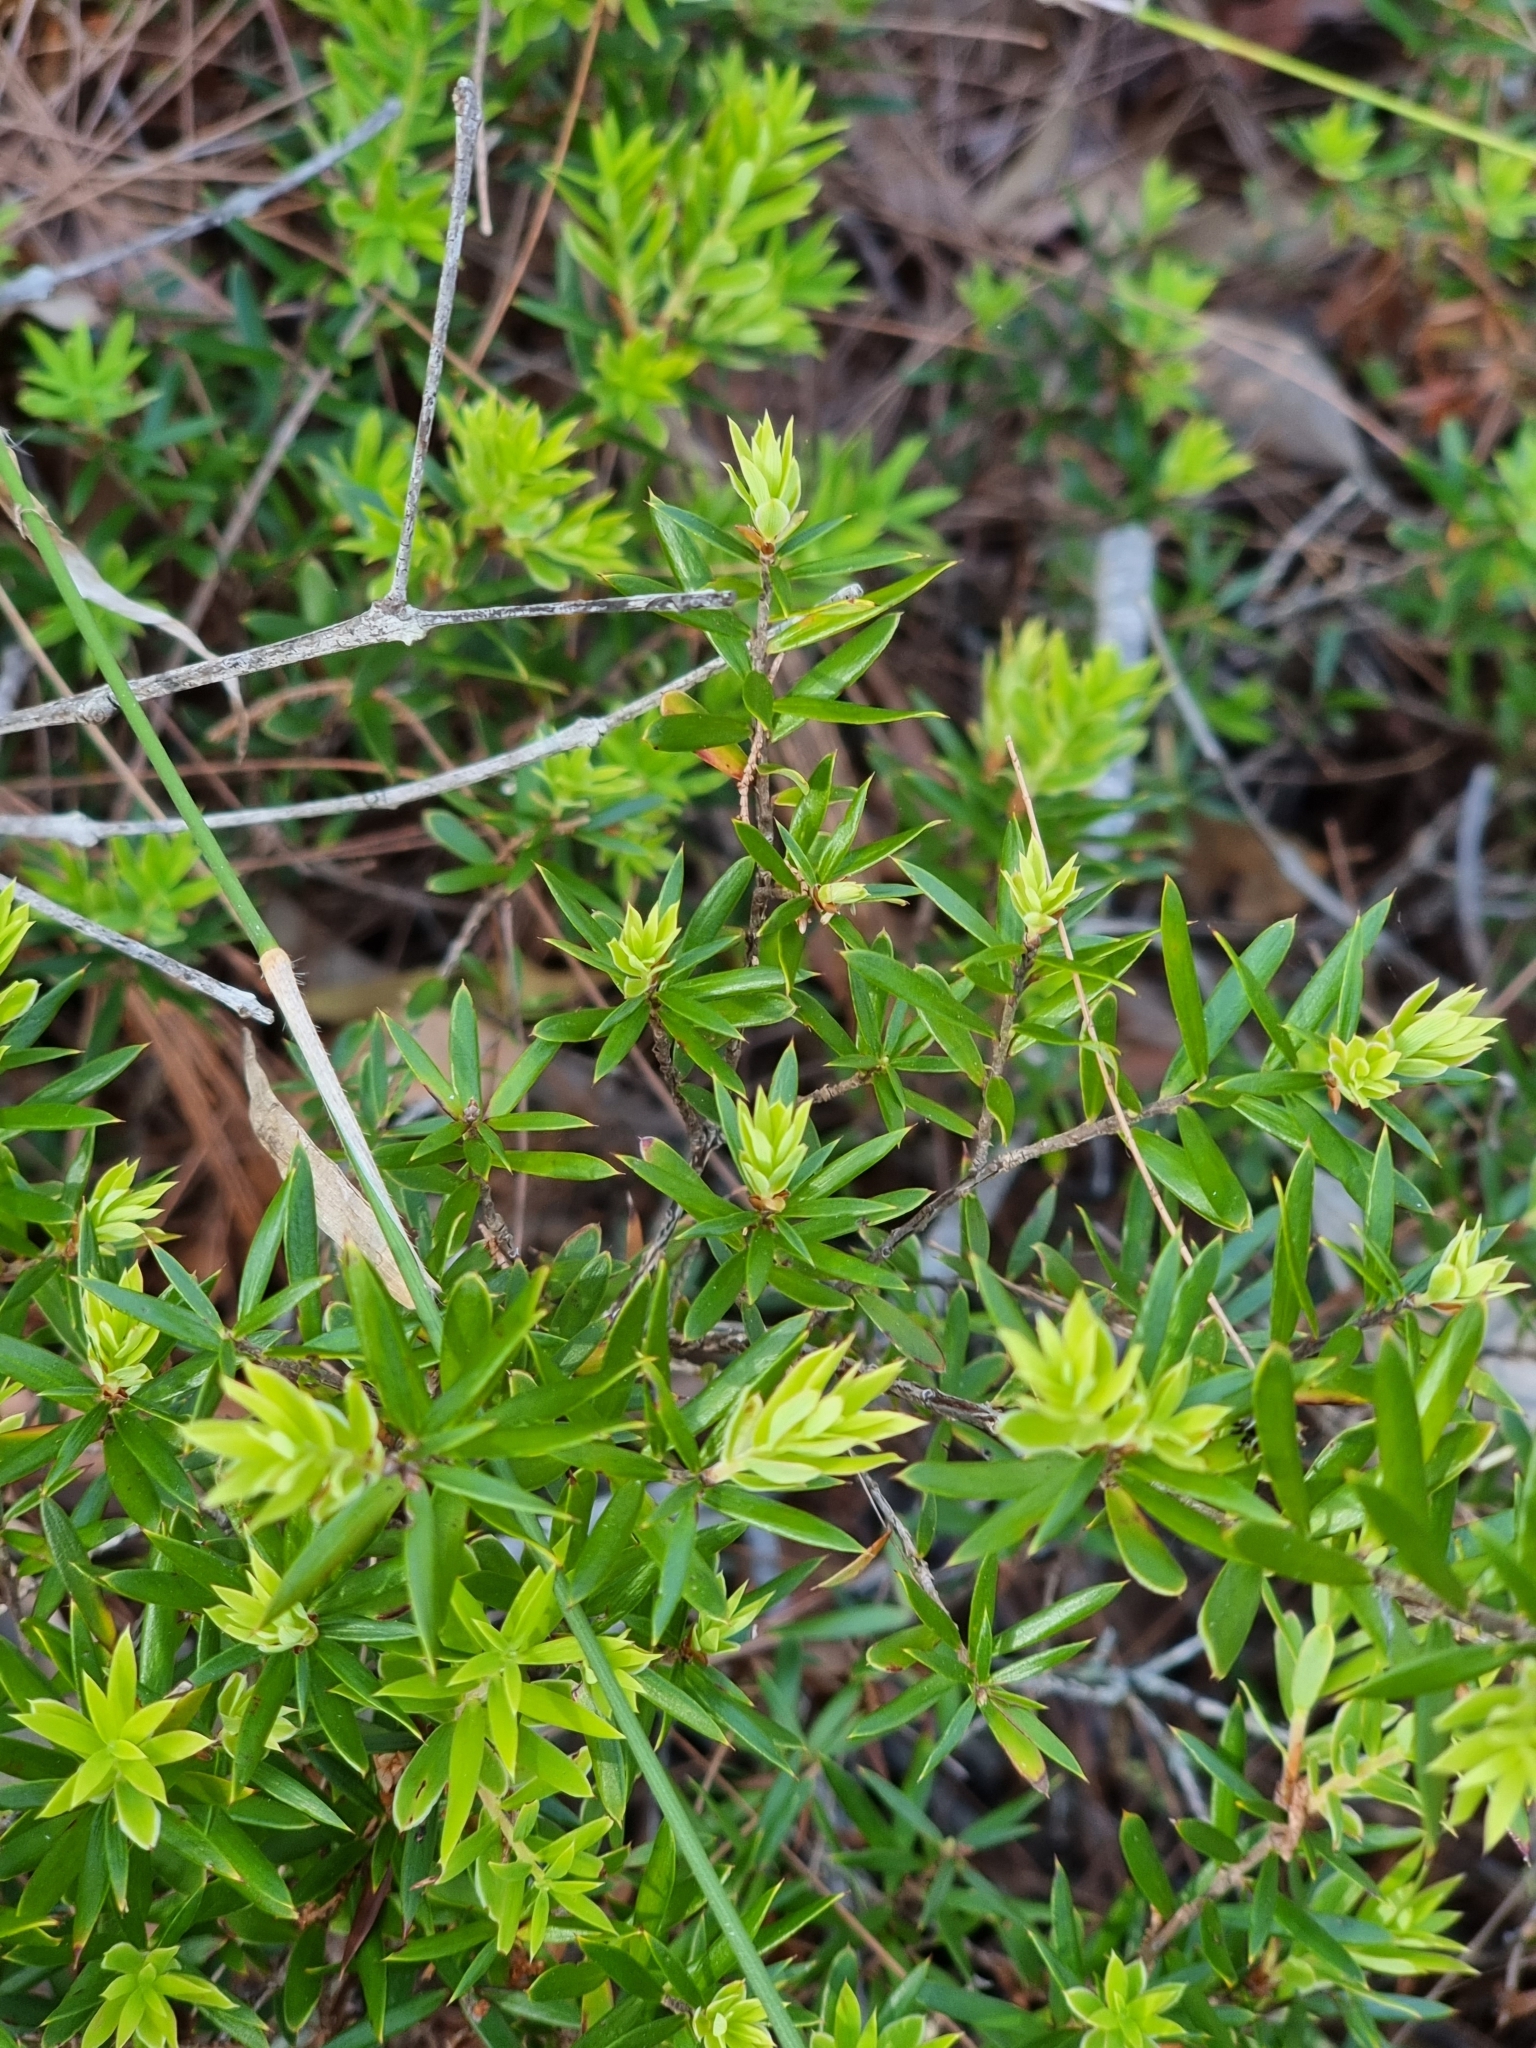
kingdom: Plantae
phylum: Tracheophyta
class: Magnoliopsida
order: Ericales
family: Ericaceae
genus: Acrotriche
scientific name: Acrotriche aggregata
